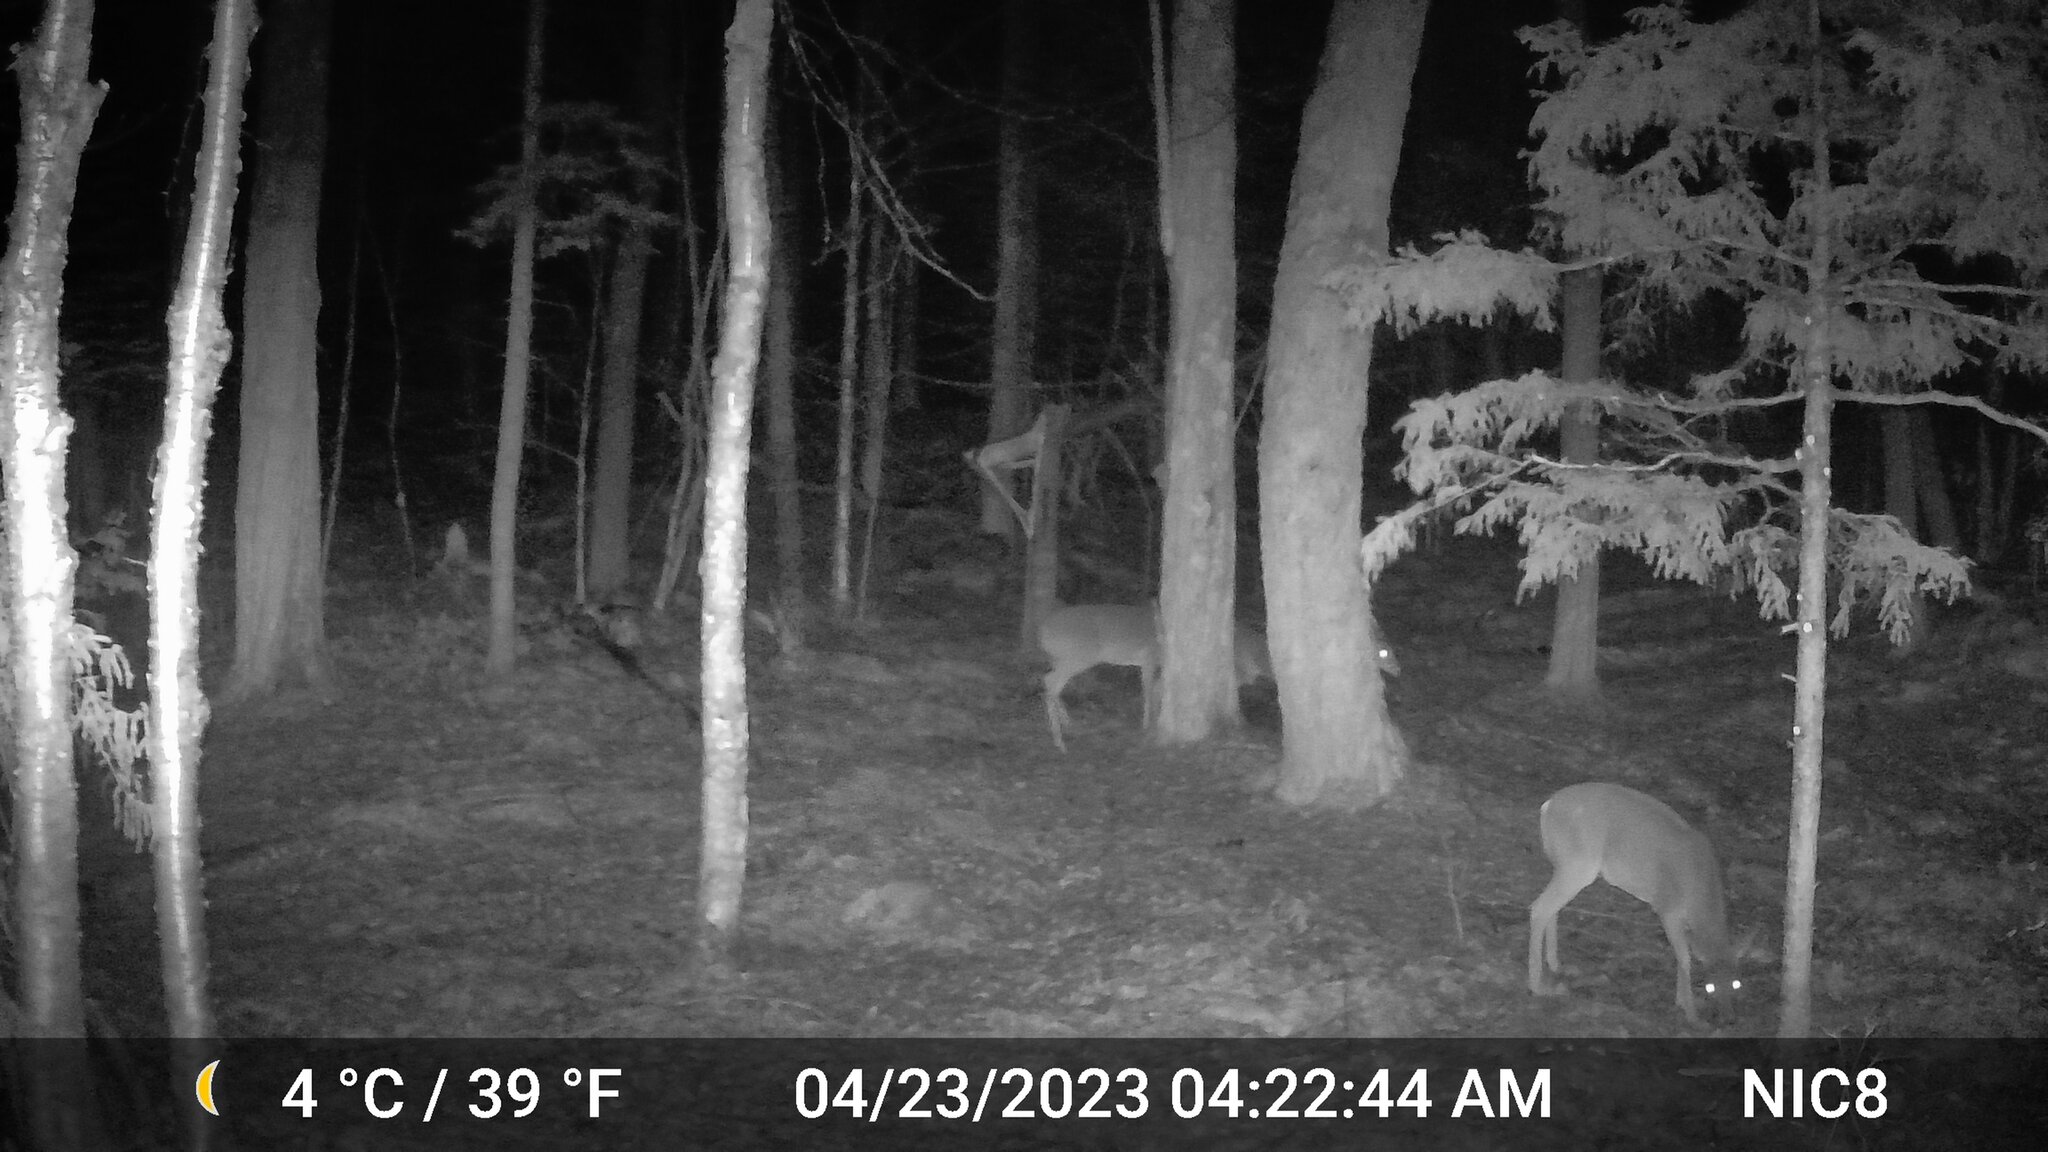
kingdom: Animalia
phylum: Chordata
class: Mammalia
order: Artiodactyla
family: Cervidae
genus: Odocoileus
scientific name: Odocoileus virginianus
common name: White-tailed deer
